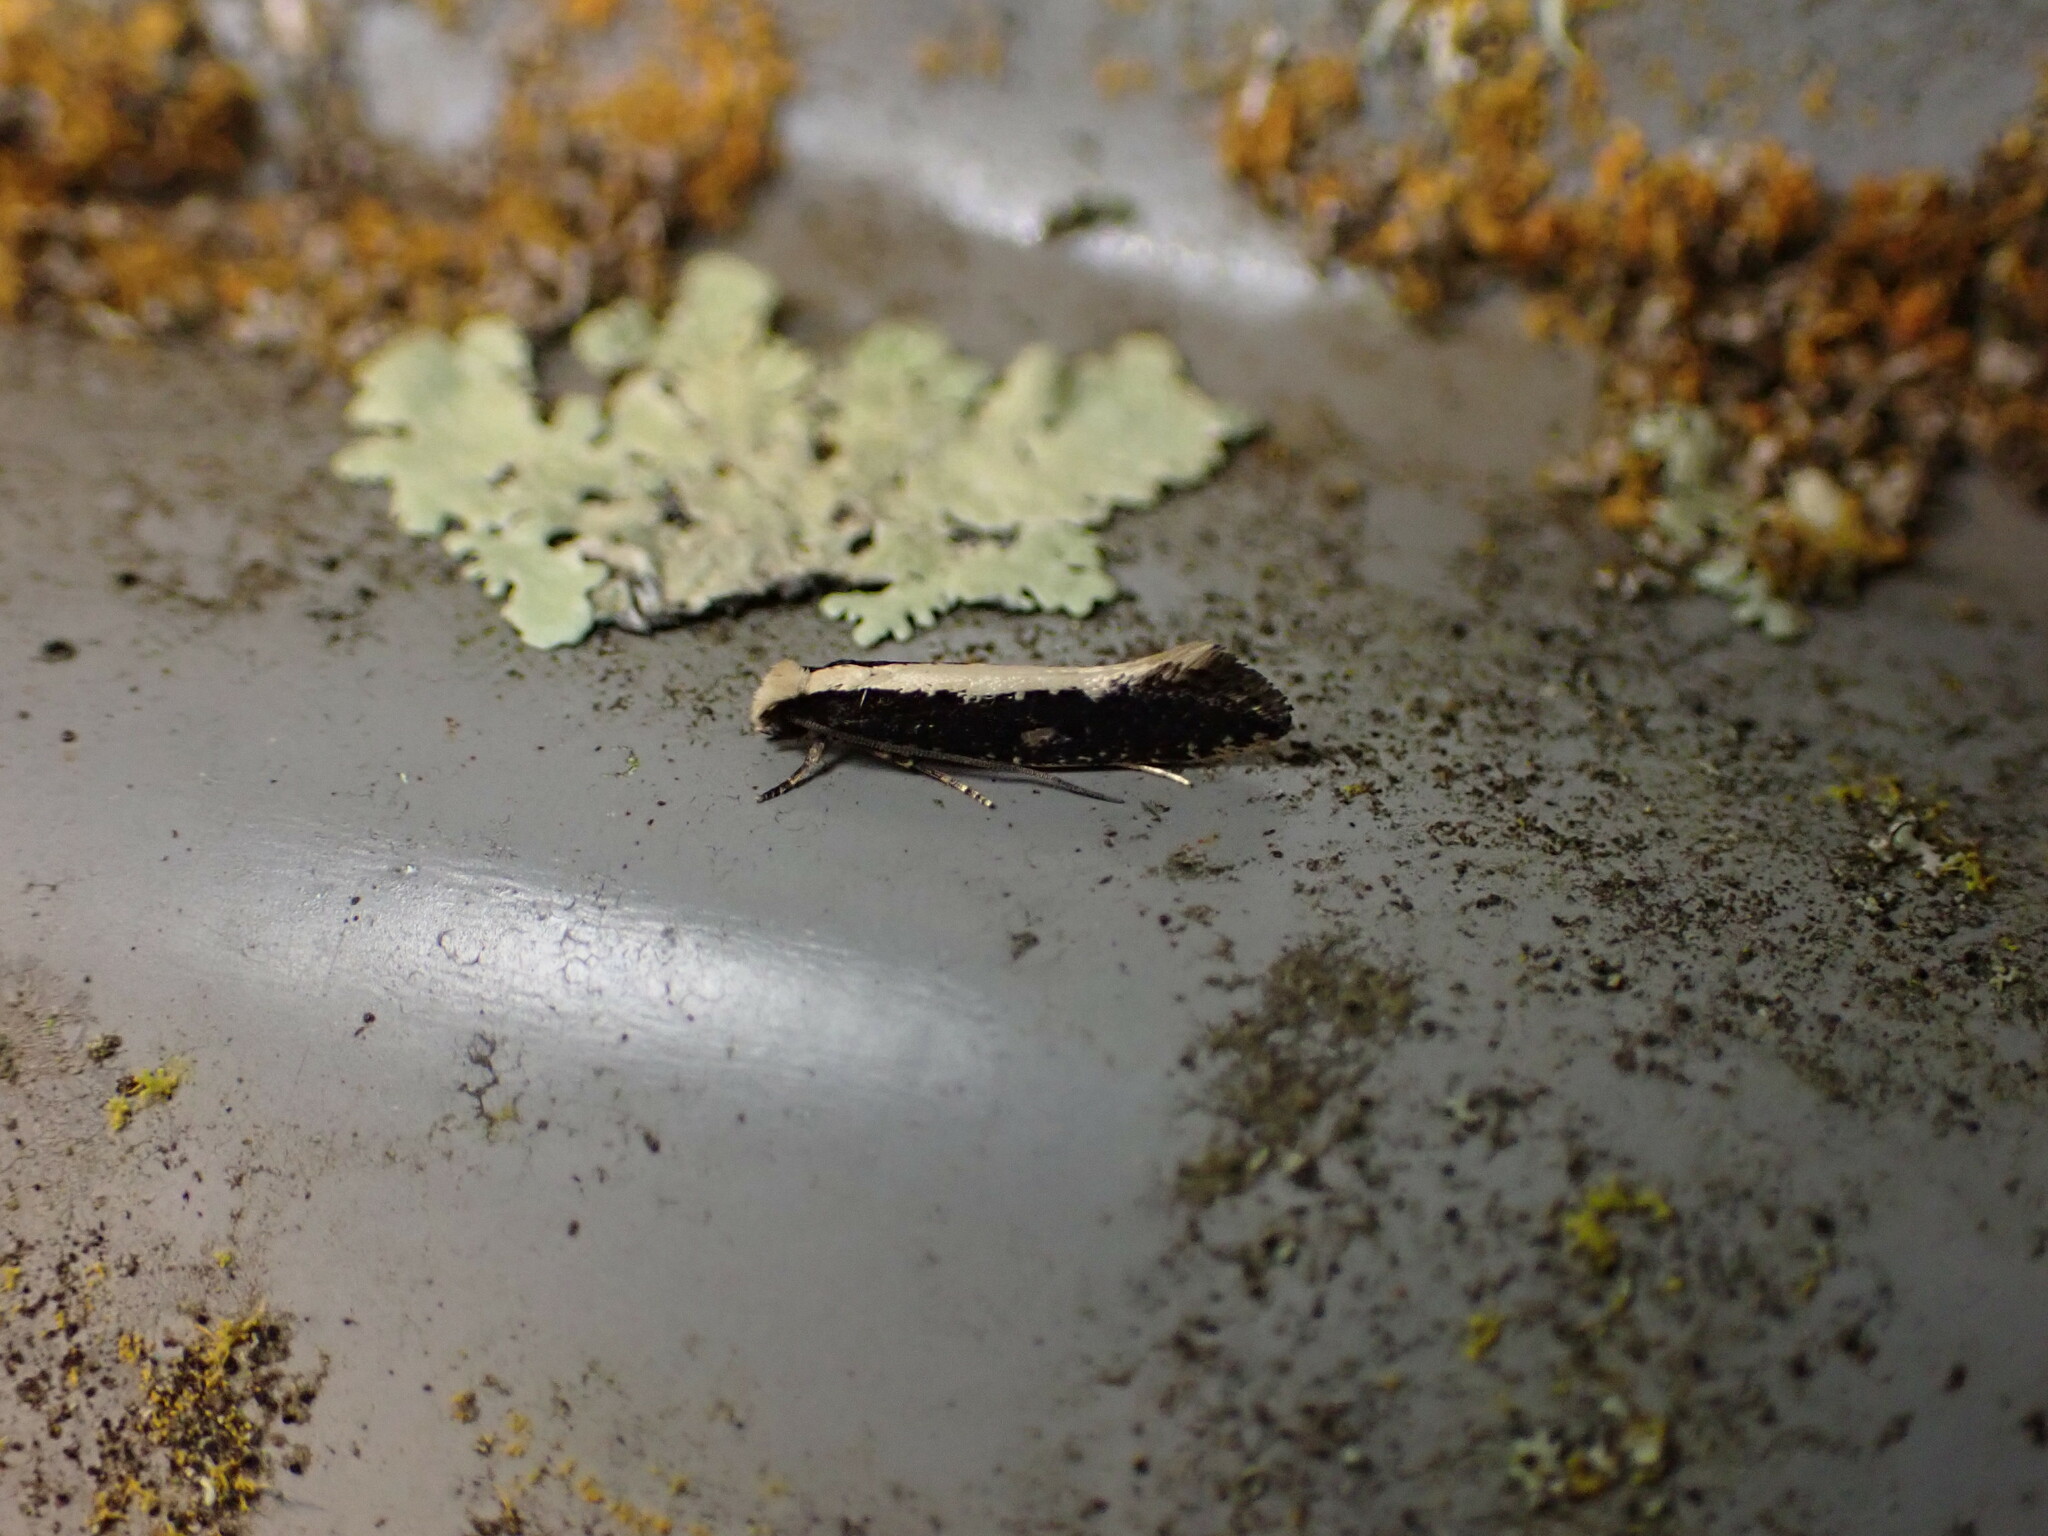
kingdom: Animalia
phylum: Arthropoda
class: Insecta
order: Lepidoptera
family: Tineidae
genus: Monopis
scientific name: Monopis ethelella
